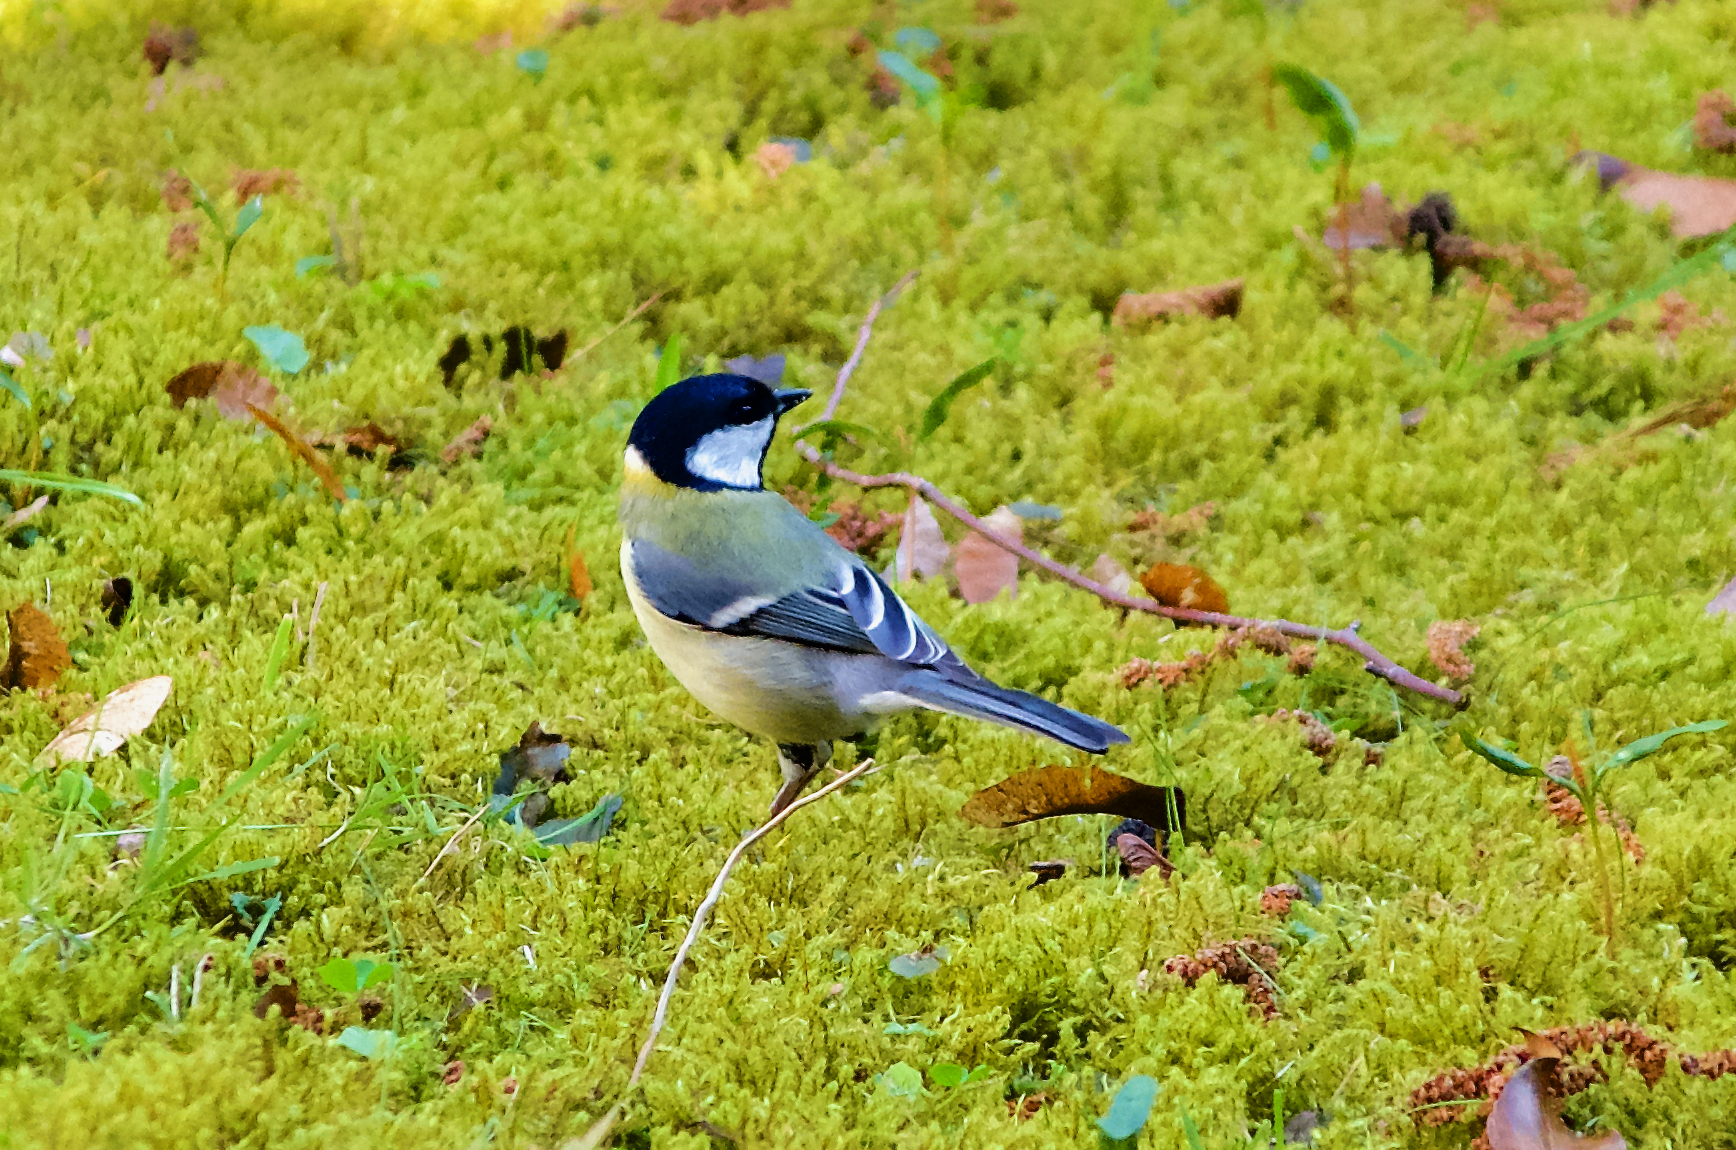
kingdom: Animalia
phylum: Chordata
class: Aves
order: Passeriformes
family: Paridae
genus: Parus
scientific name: Parus major
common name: Great tit
